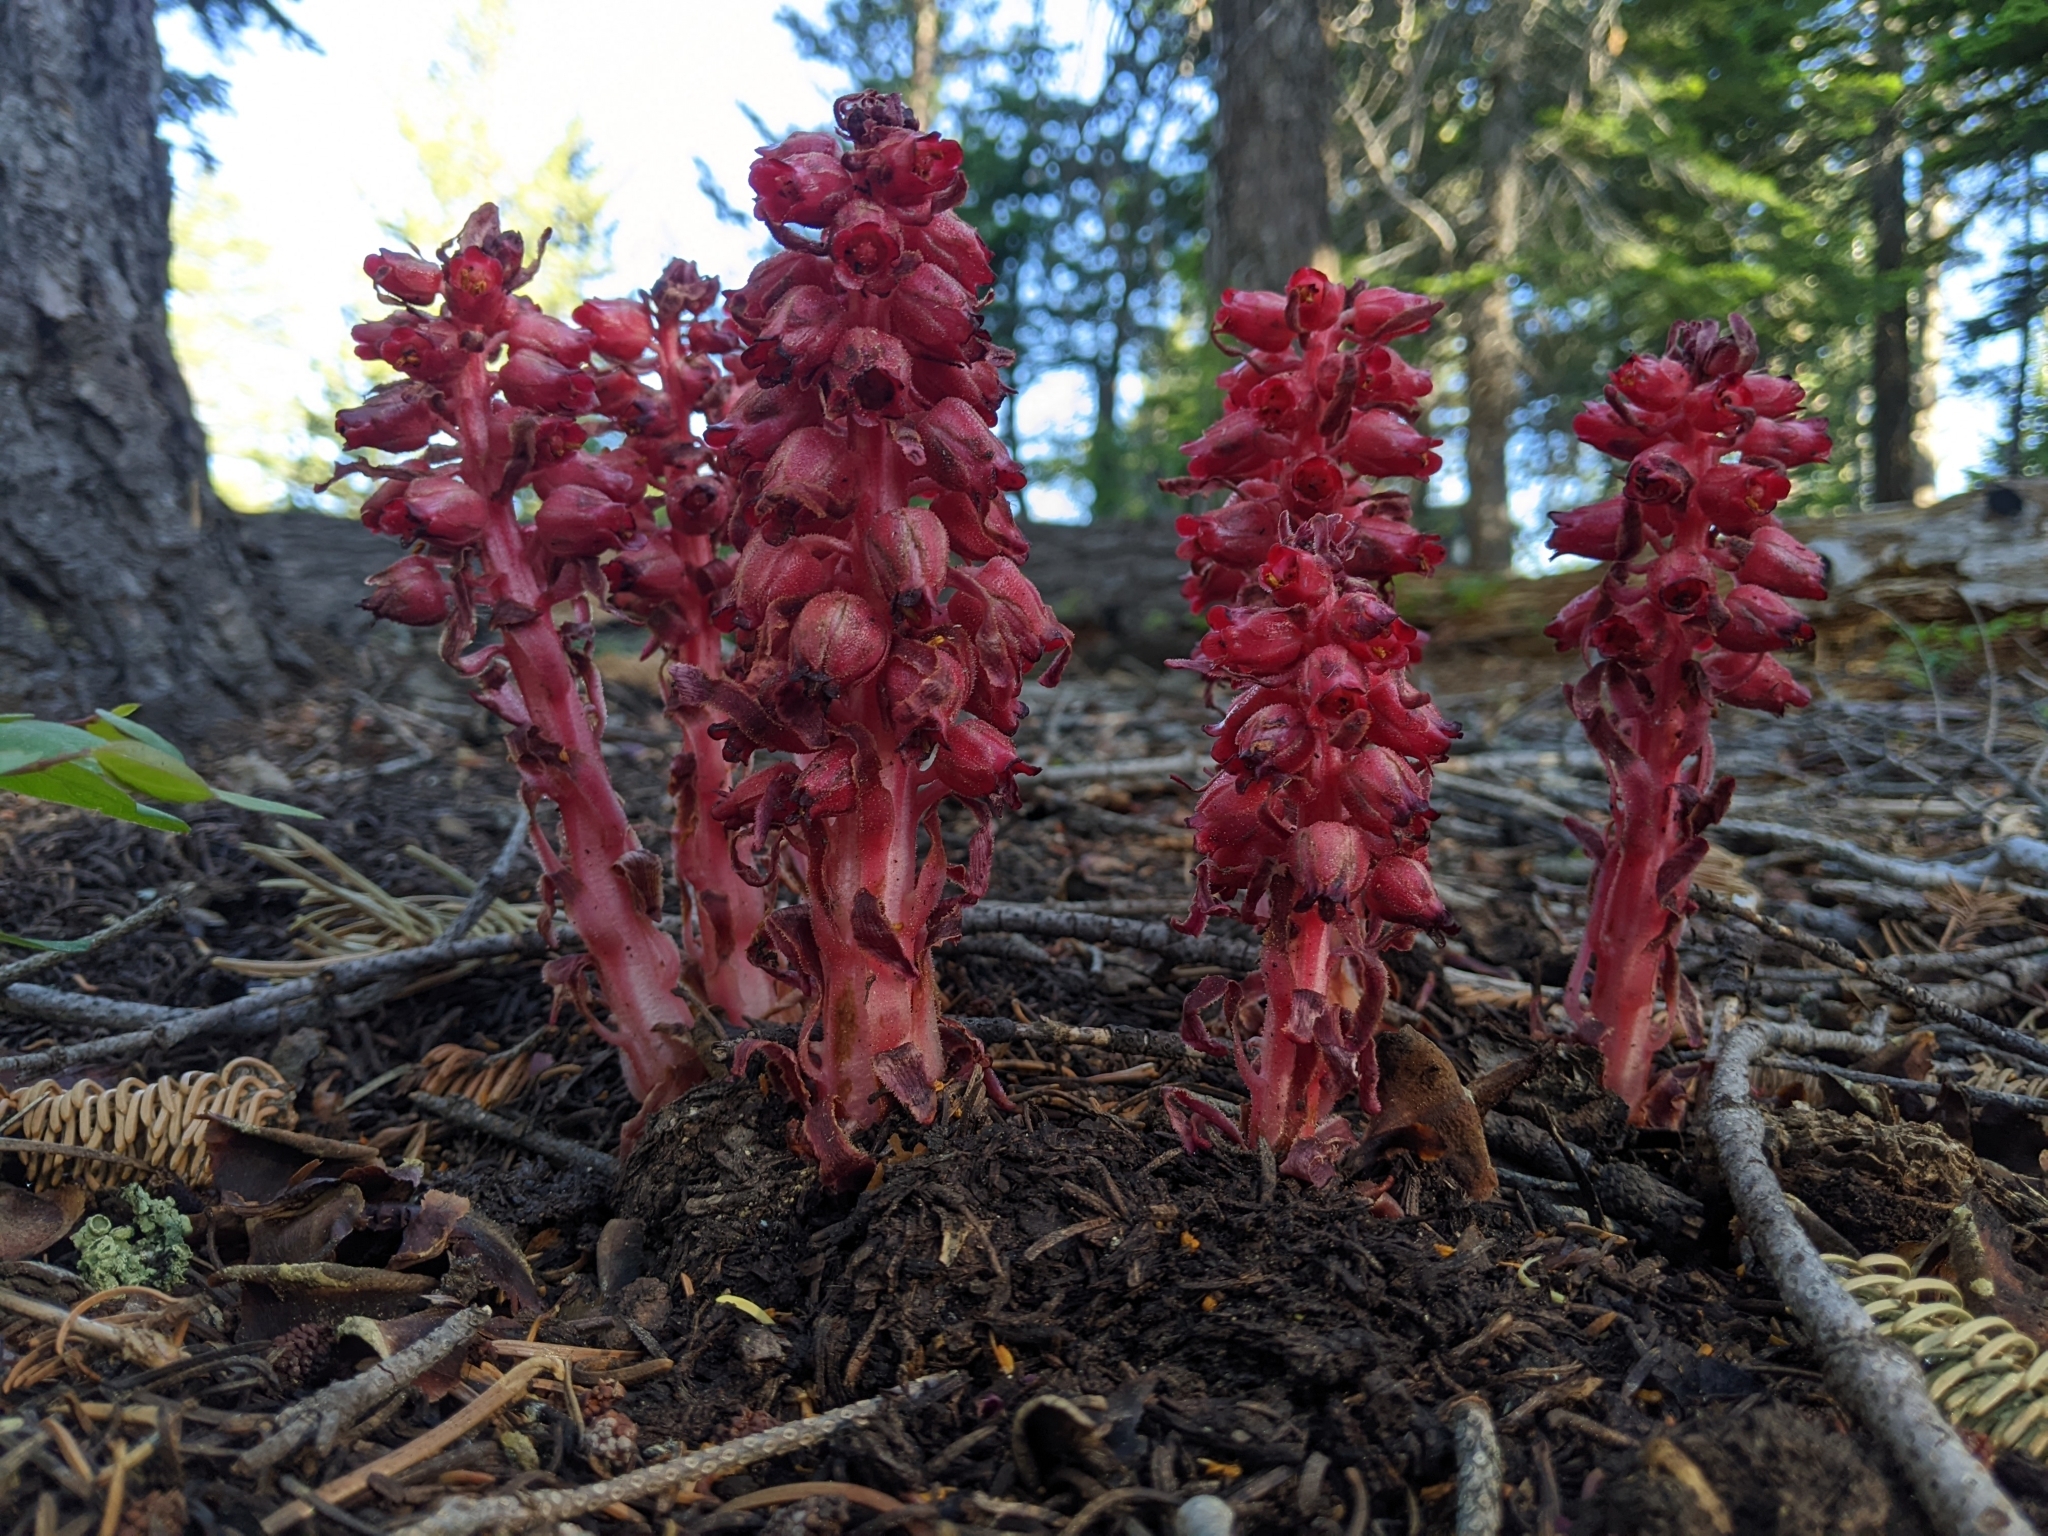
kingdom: Plantae
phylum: Tracheophyta
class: Magnoliopsida
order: Ericales
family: Ericaceae
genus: Sarcodes
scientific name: Sarcodes sanguinea
